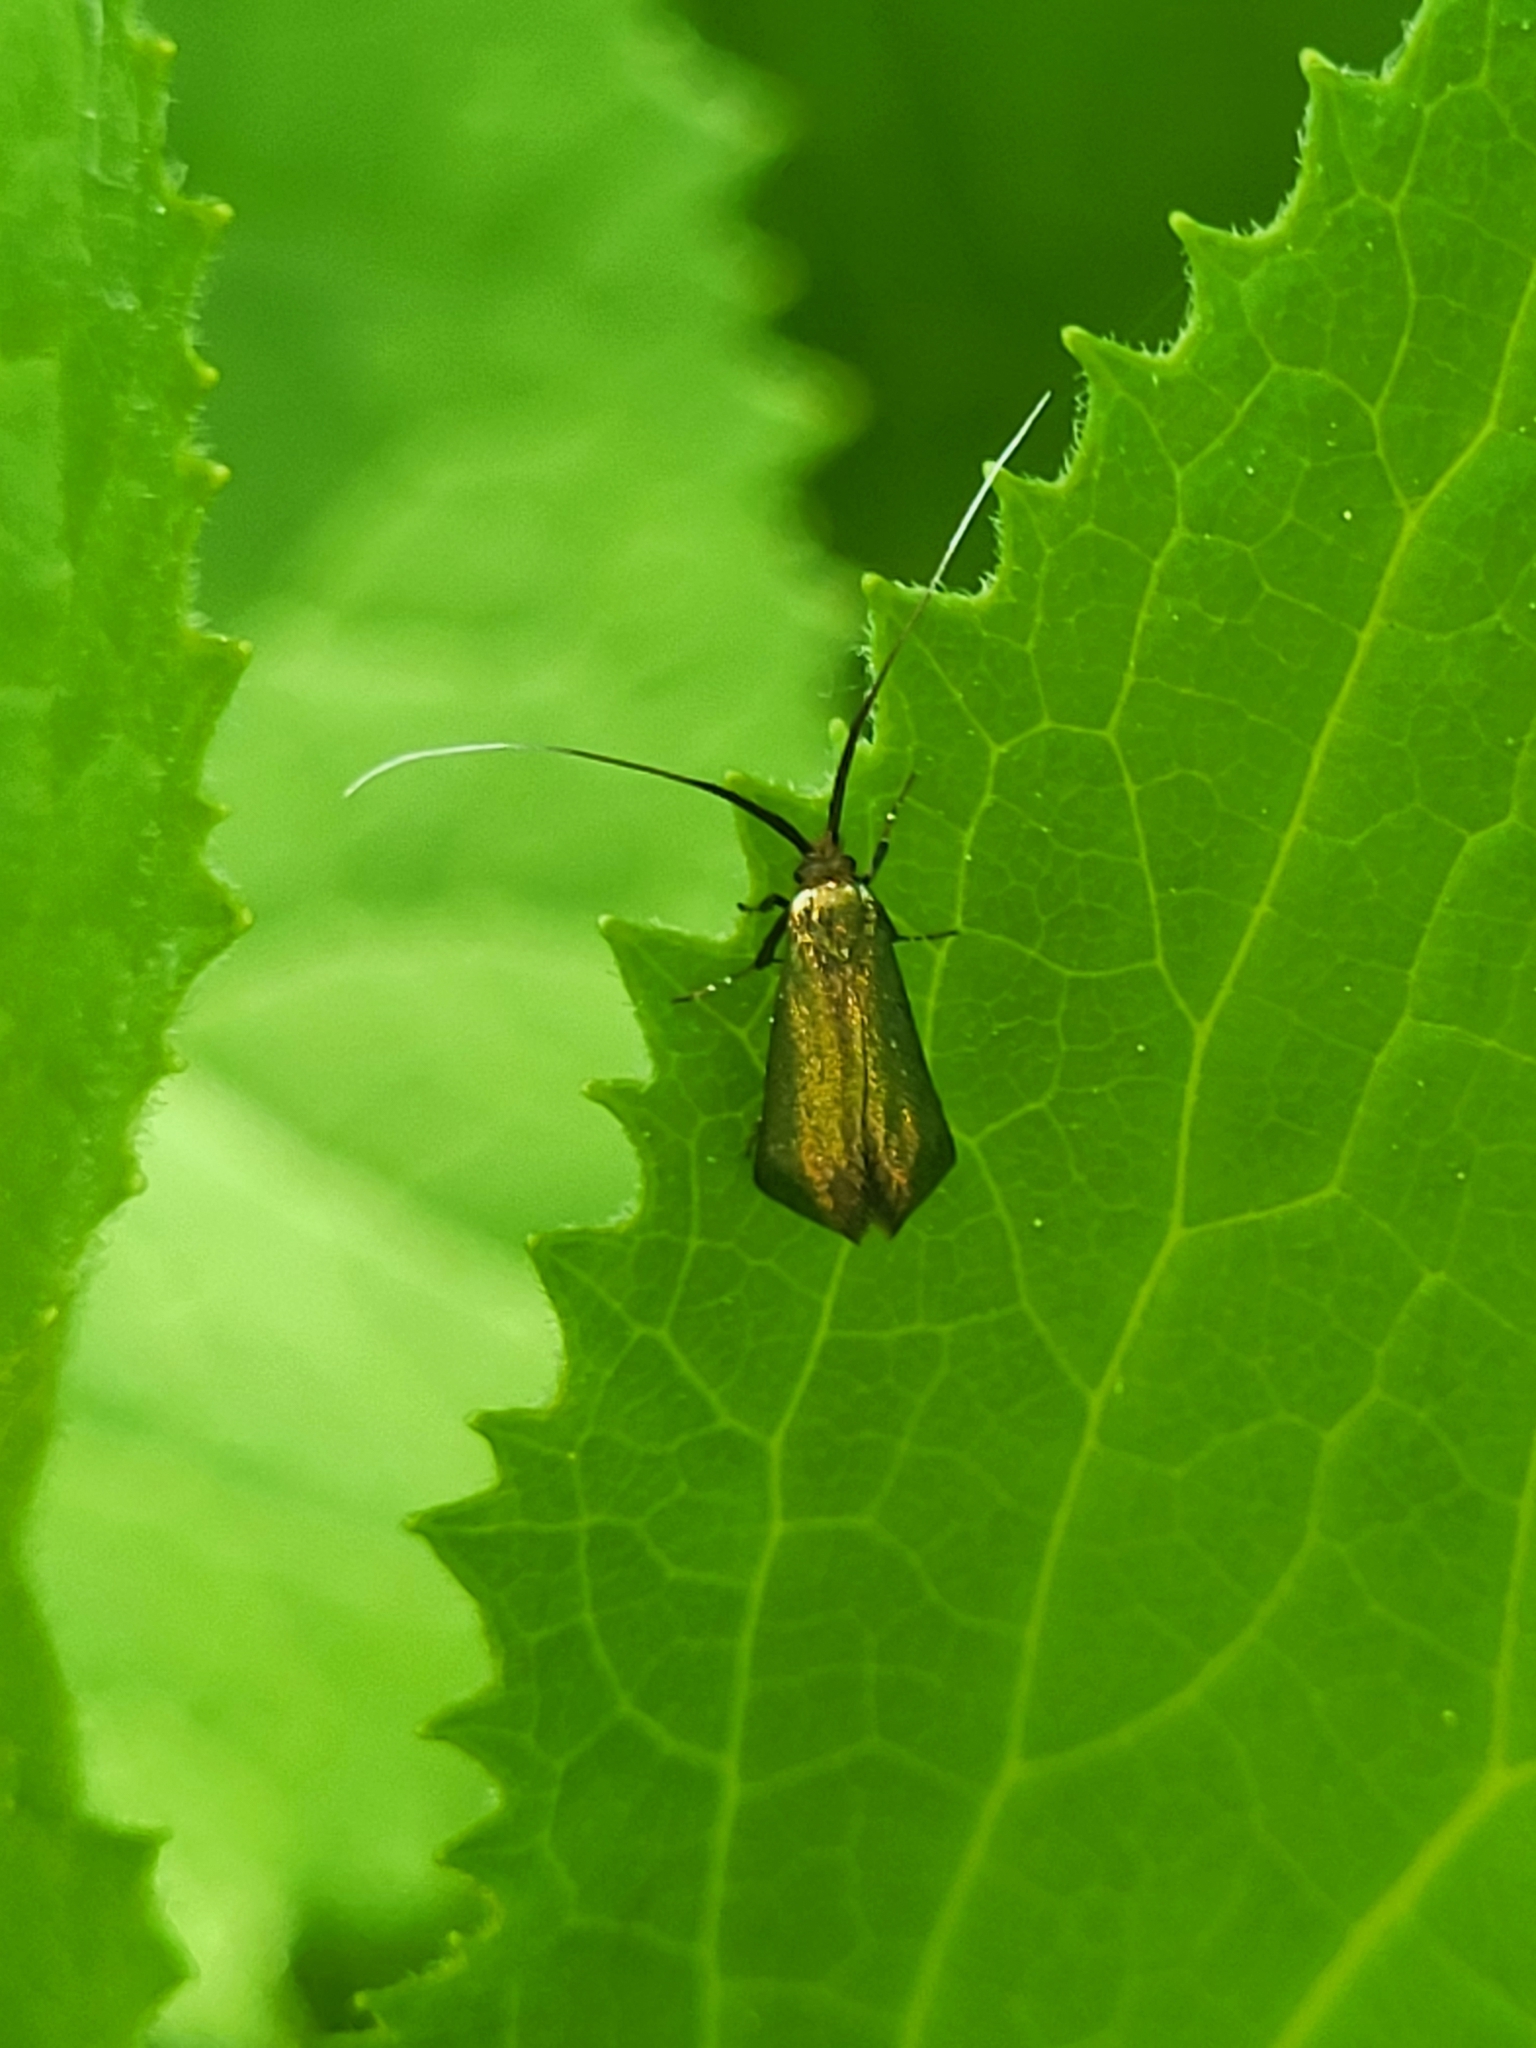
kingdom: Animalia
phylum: Arthropoda
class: Insecta
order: Lepidoptera
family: Adelidae
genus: Adela
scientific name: Adela viridella
